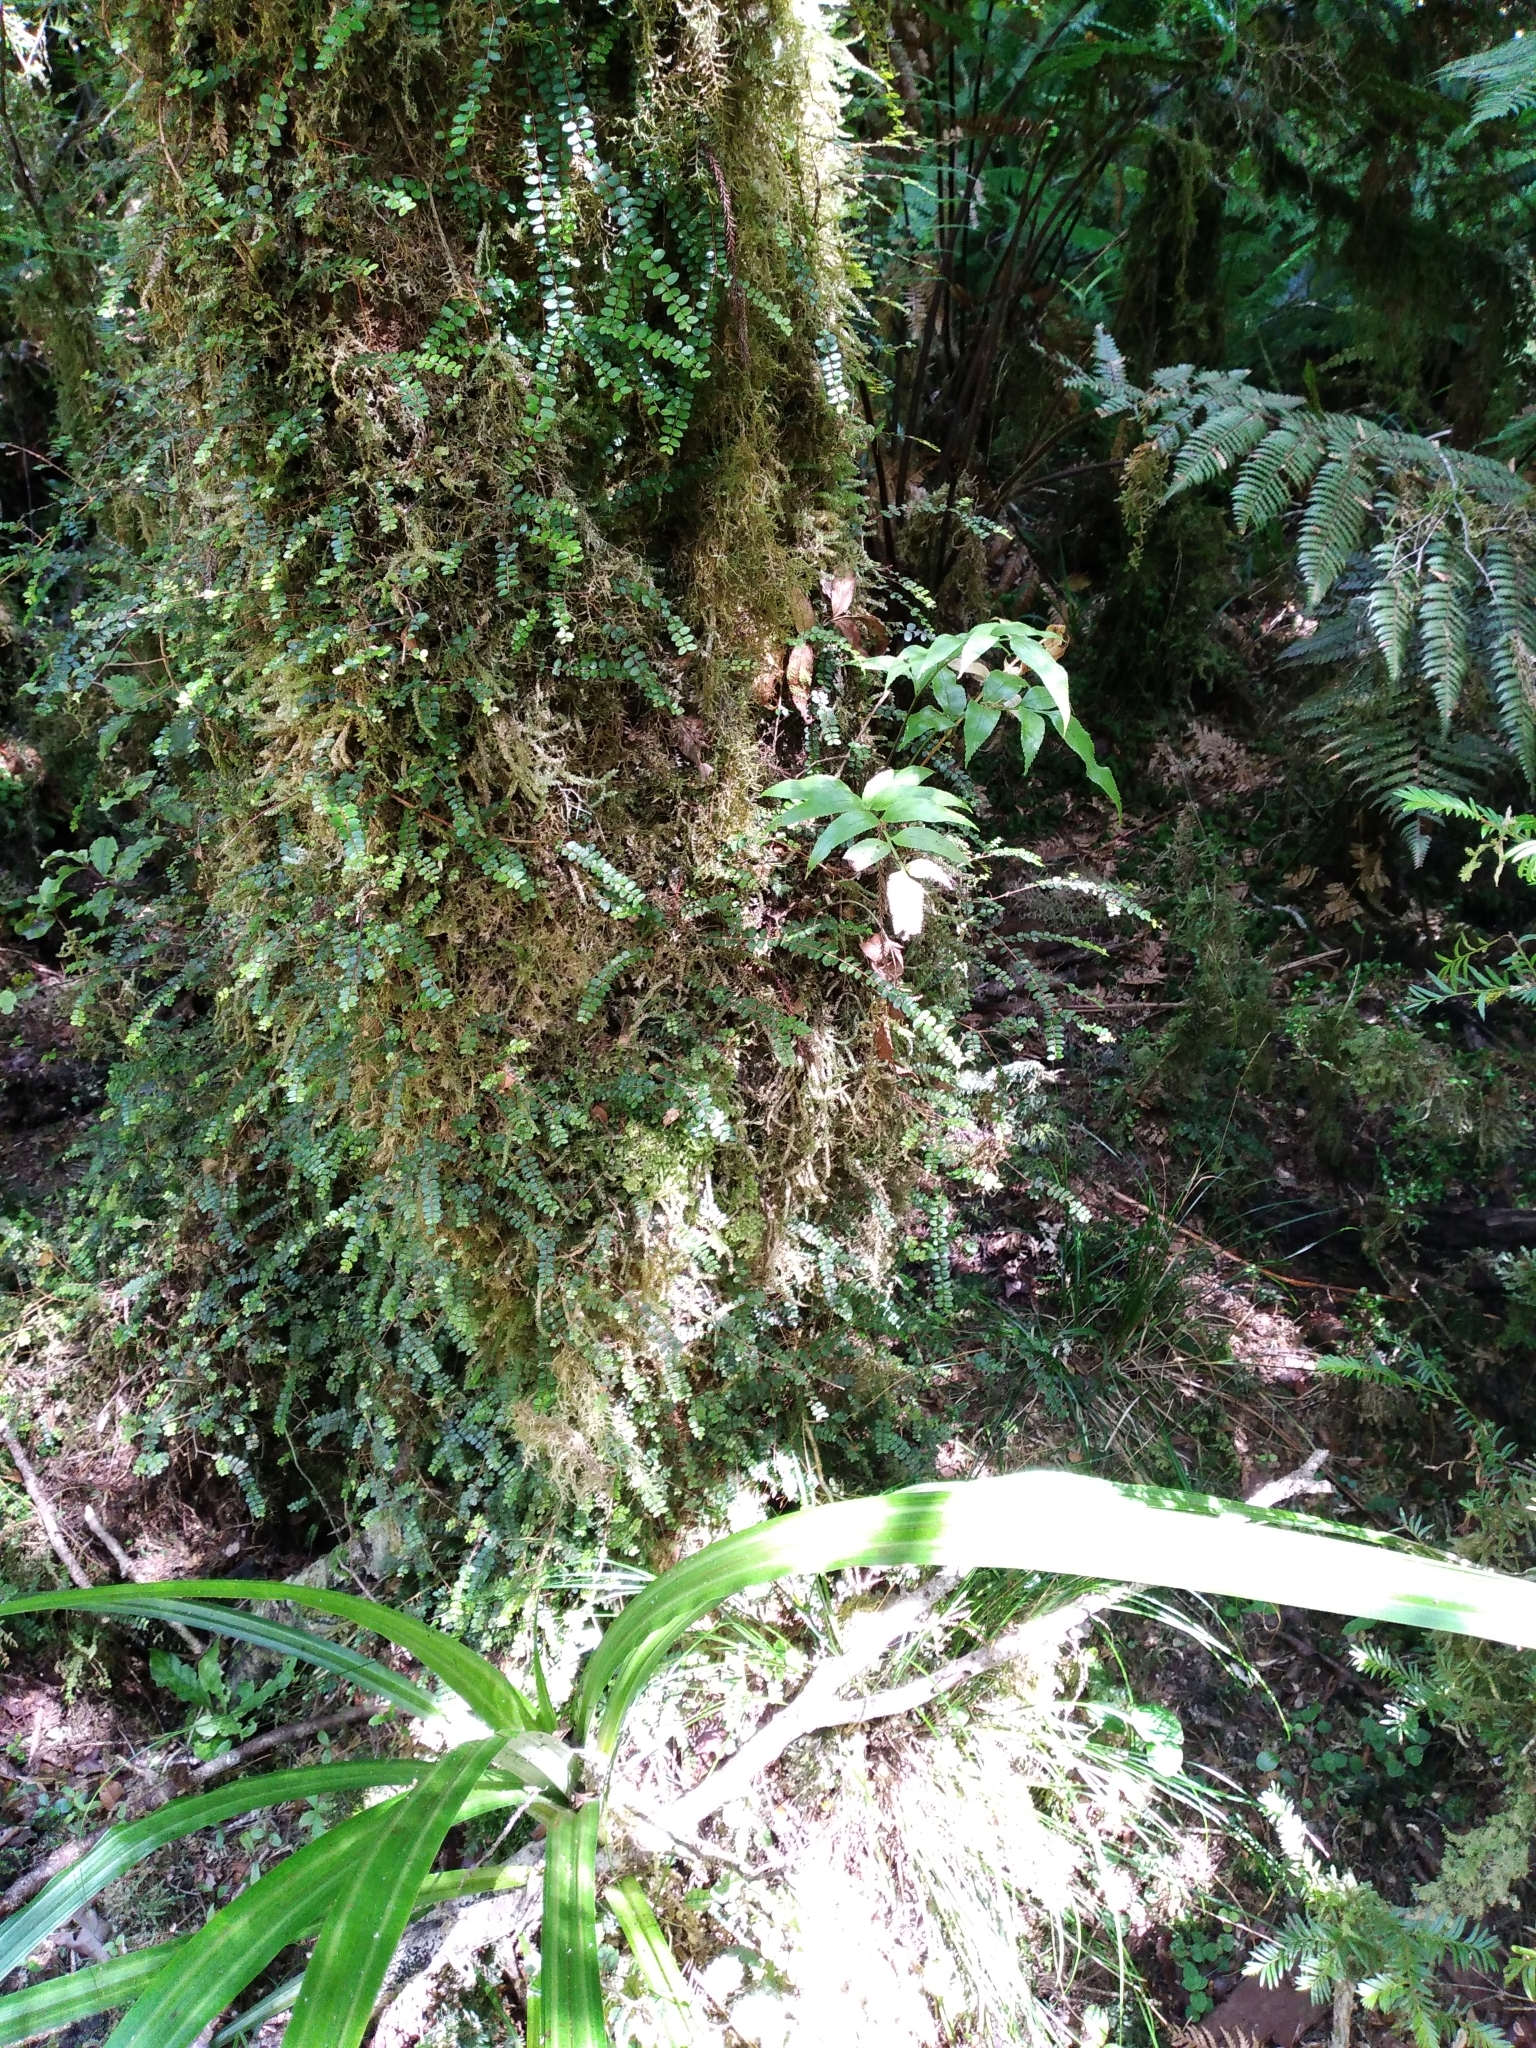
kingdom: Plantae
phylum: Tracheophyta
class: Polypodiopsida
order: Polypodiales
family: Aspleniaceae
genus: Asplenium
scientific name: Asplenium lepidotum
